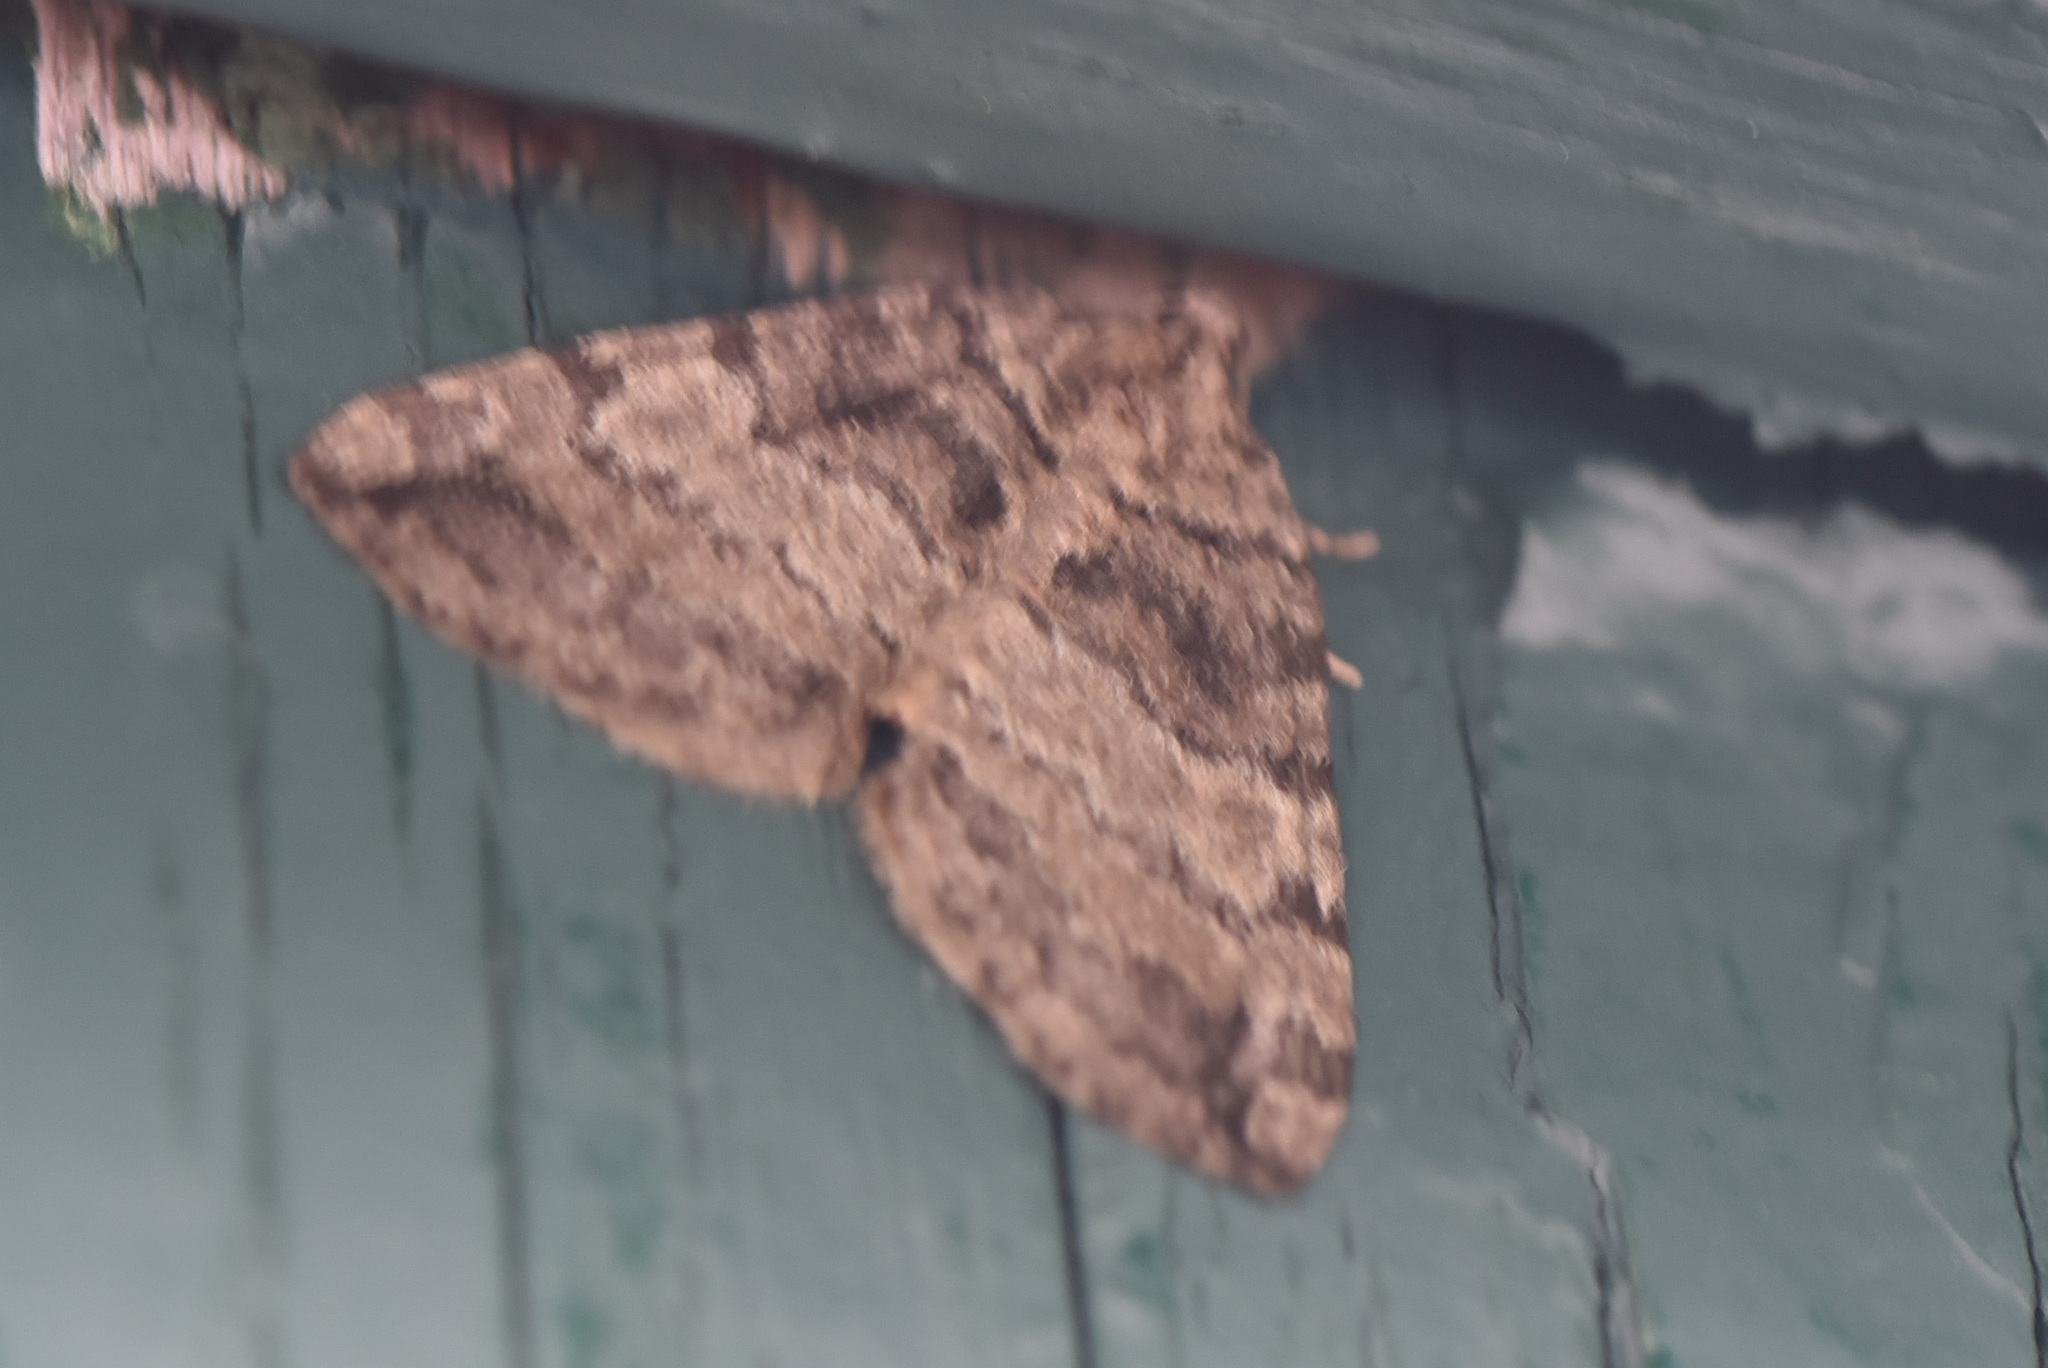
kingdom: Animalia
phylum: Arthropoda
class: Insecta
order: Lepidoptera
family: Geometridae
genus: Hydriomena
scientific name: Hydriomena furcata
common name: July highflyer
